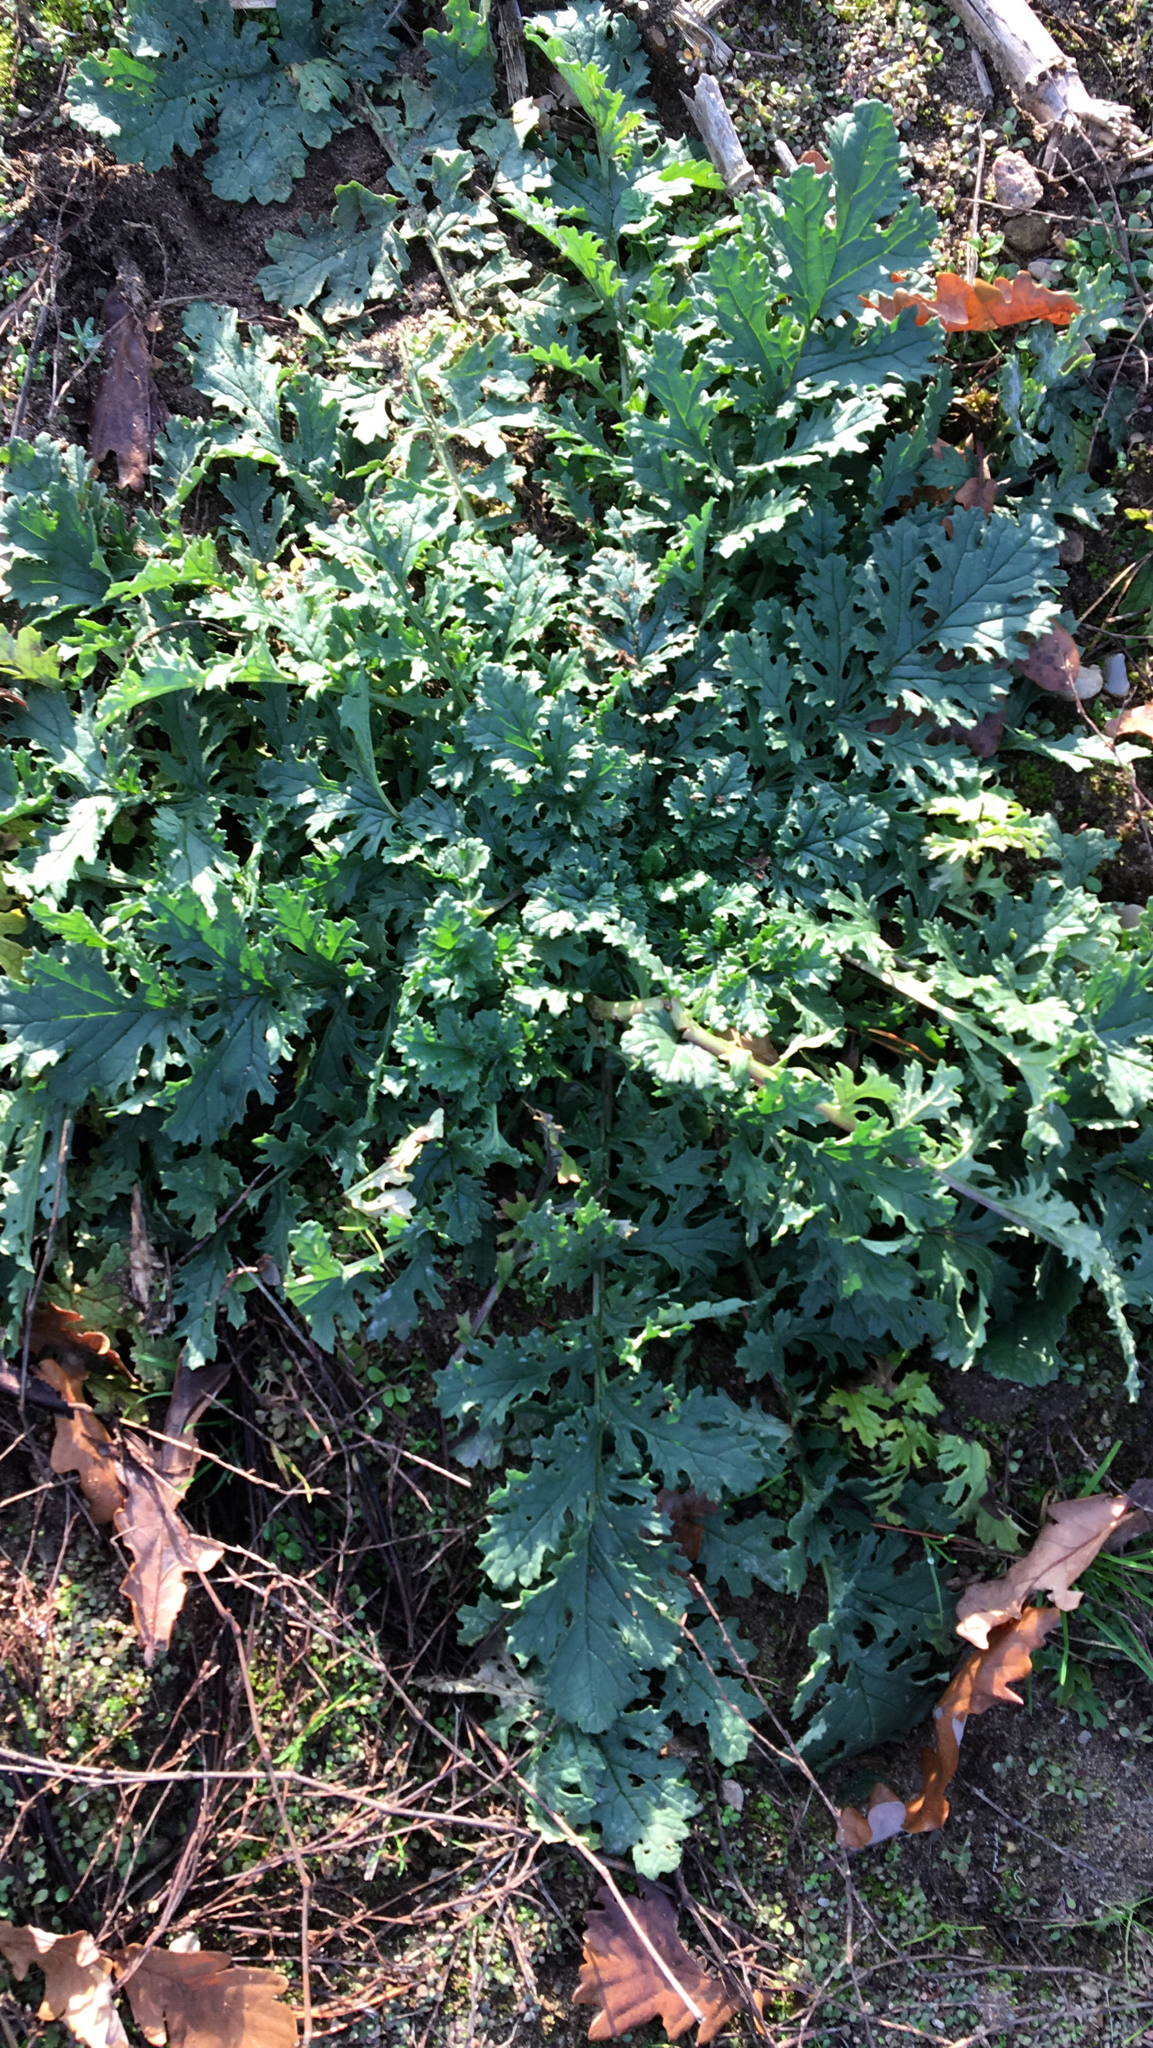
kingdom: Plantae
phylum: Tracheophyta
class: Magnoliopsida
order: Asterales
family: Asteraceae
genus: Jacobaea
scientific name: Jacobaea vulgaris
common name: Stinking willie
